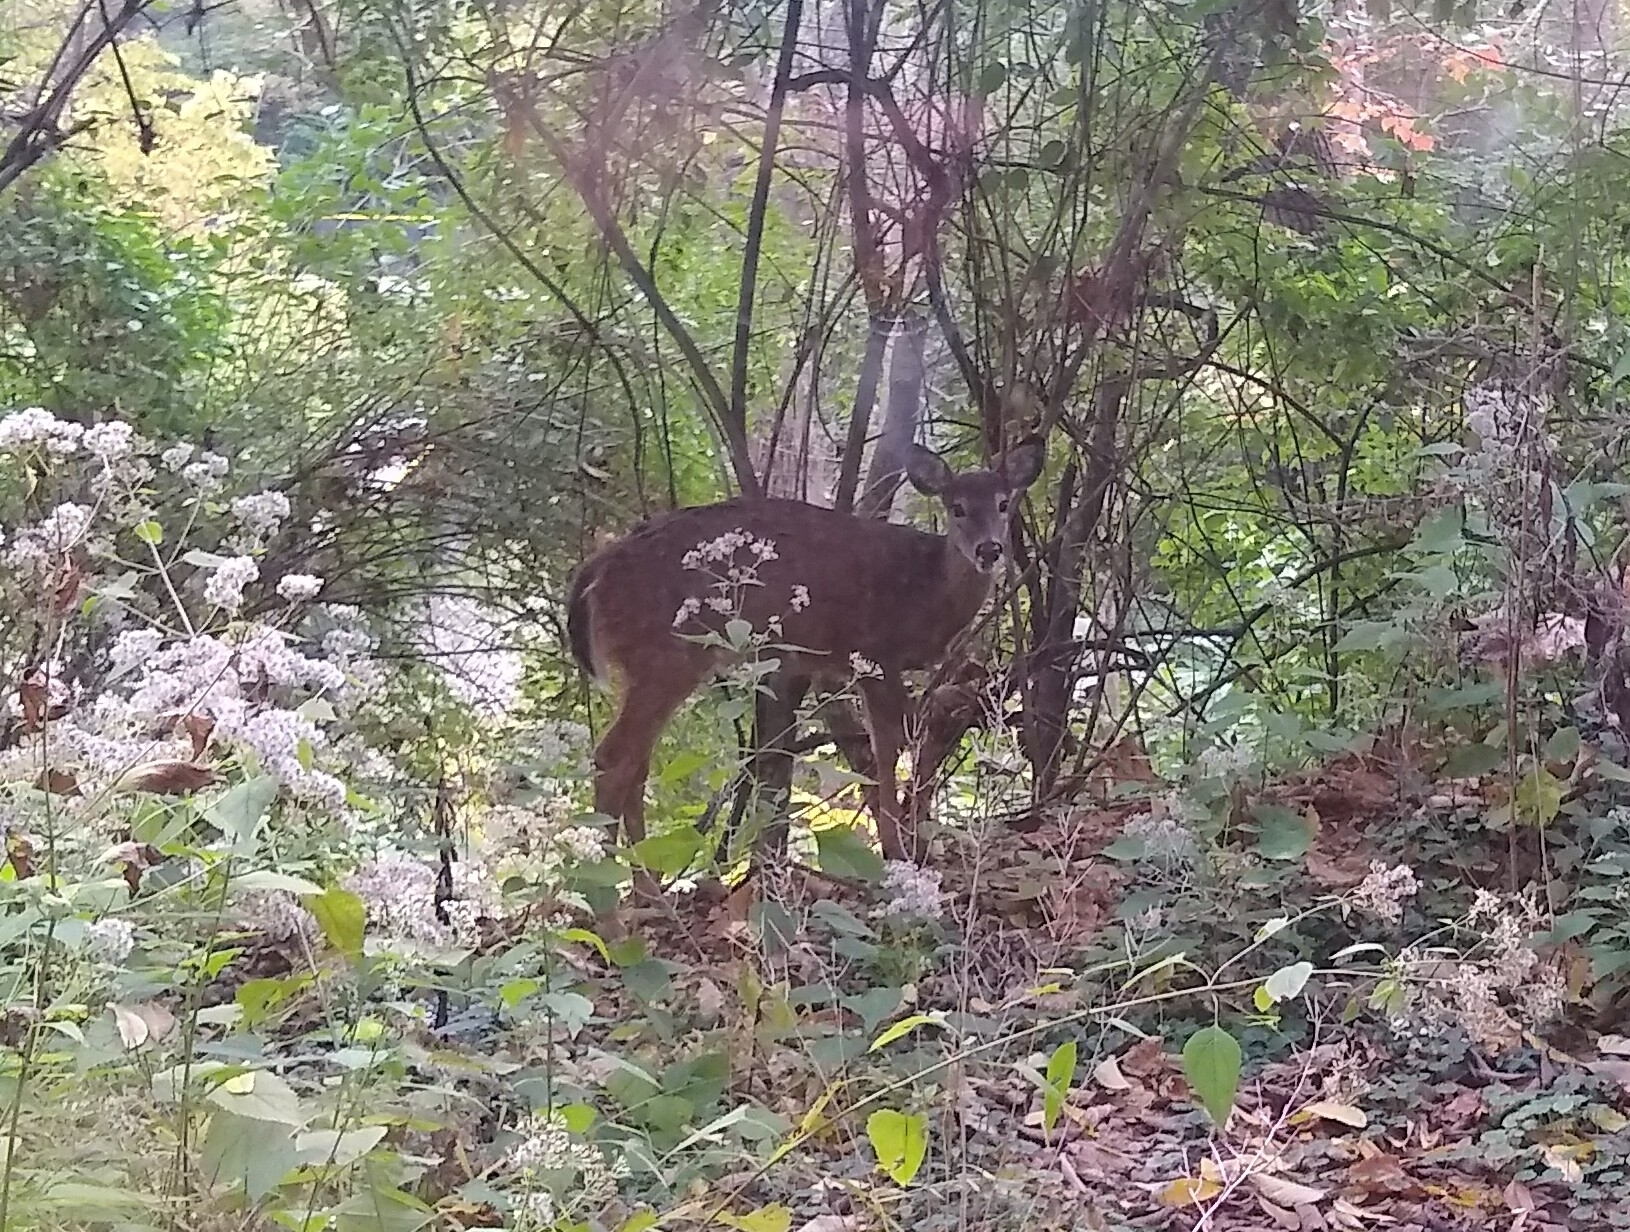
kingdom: Animalia
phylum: Chordata
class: Mammalia
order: Artiodactyla
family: Cervidae
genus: Odocoileus
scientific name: Odocoileus virginianus
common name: White-tailed deer
